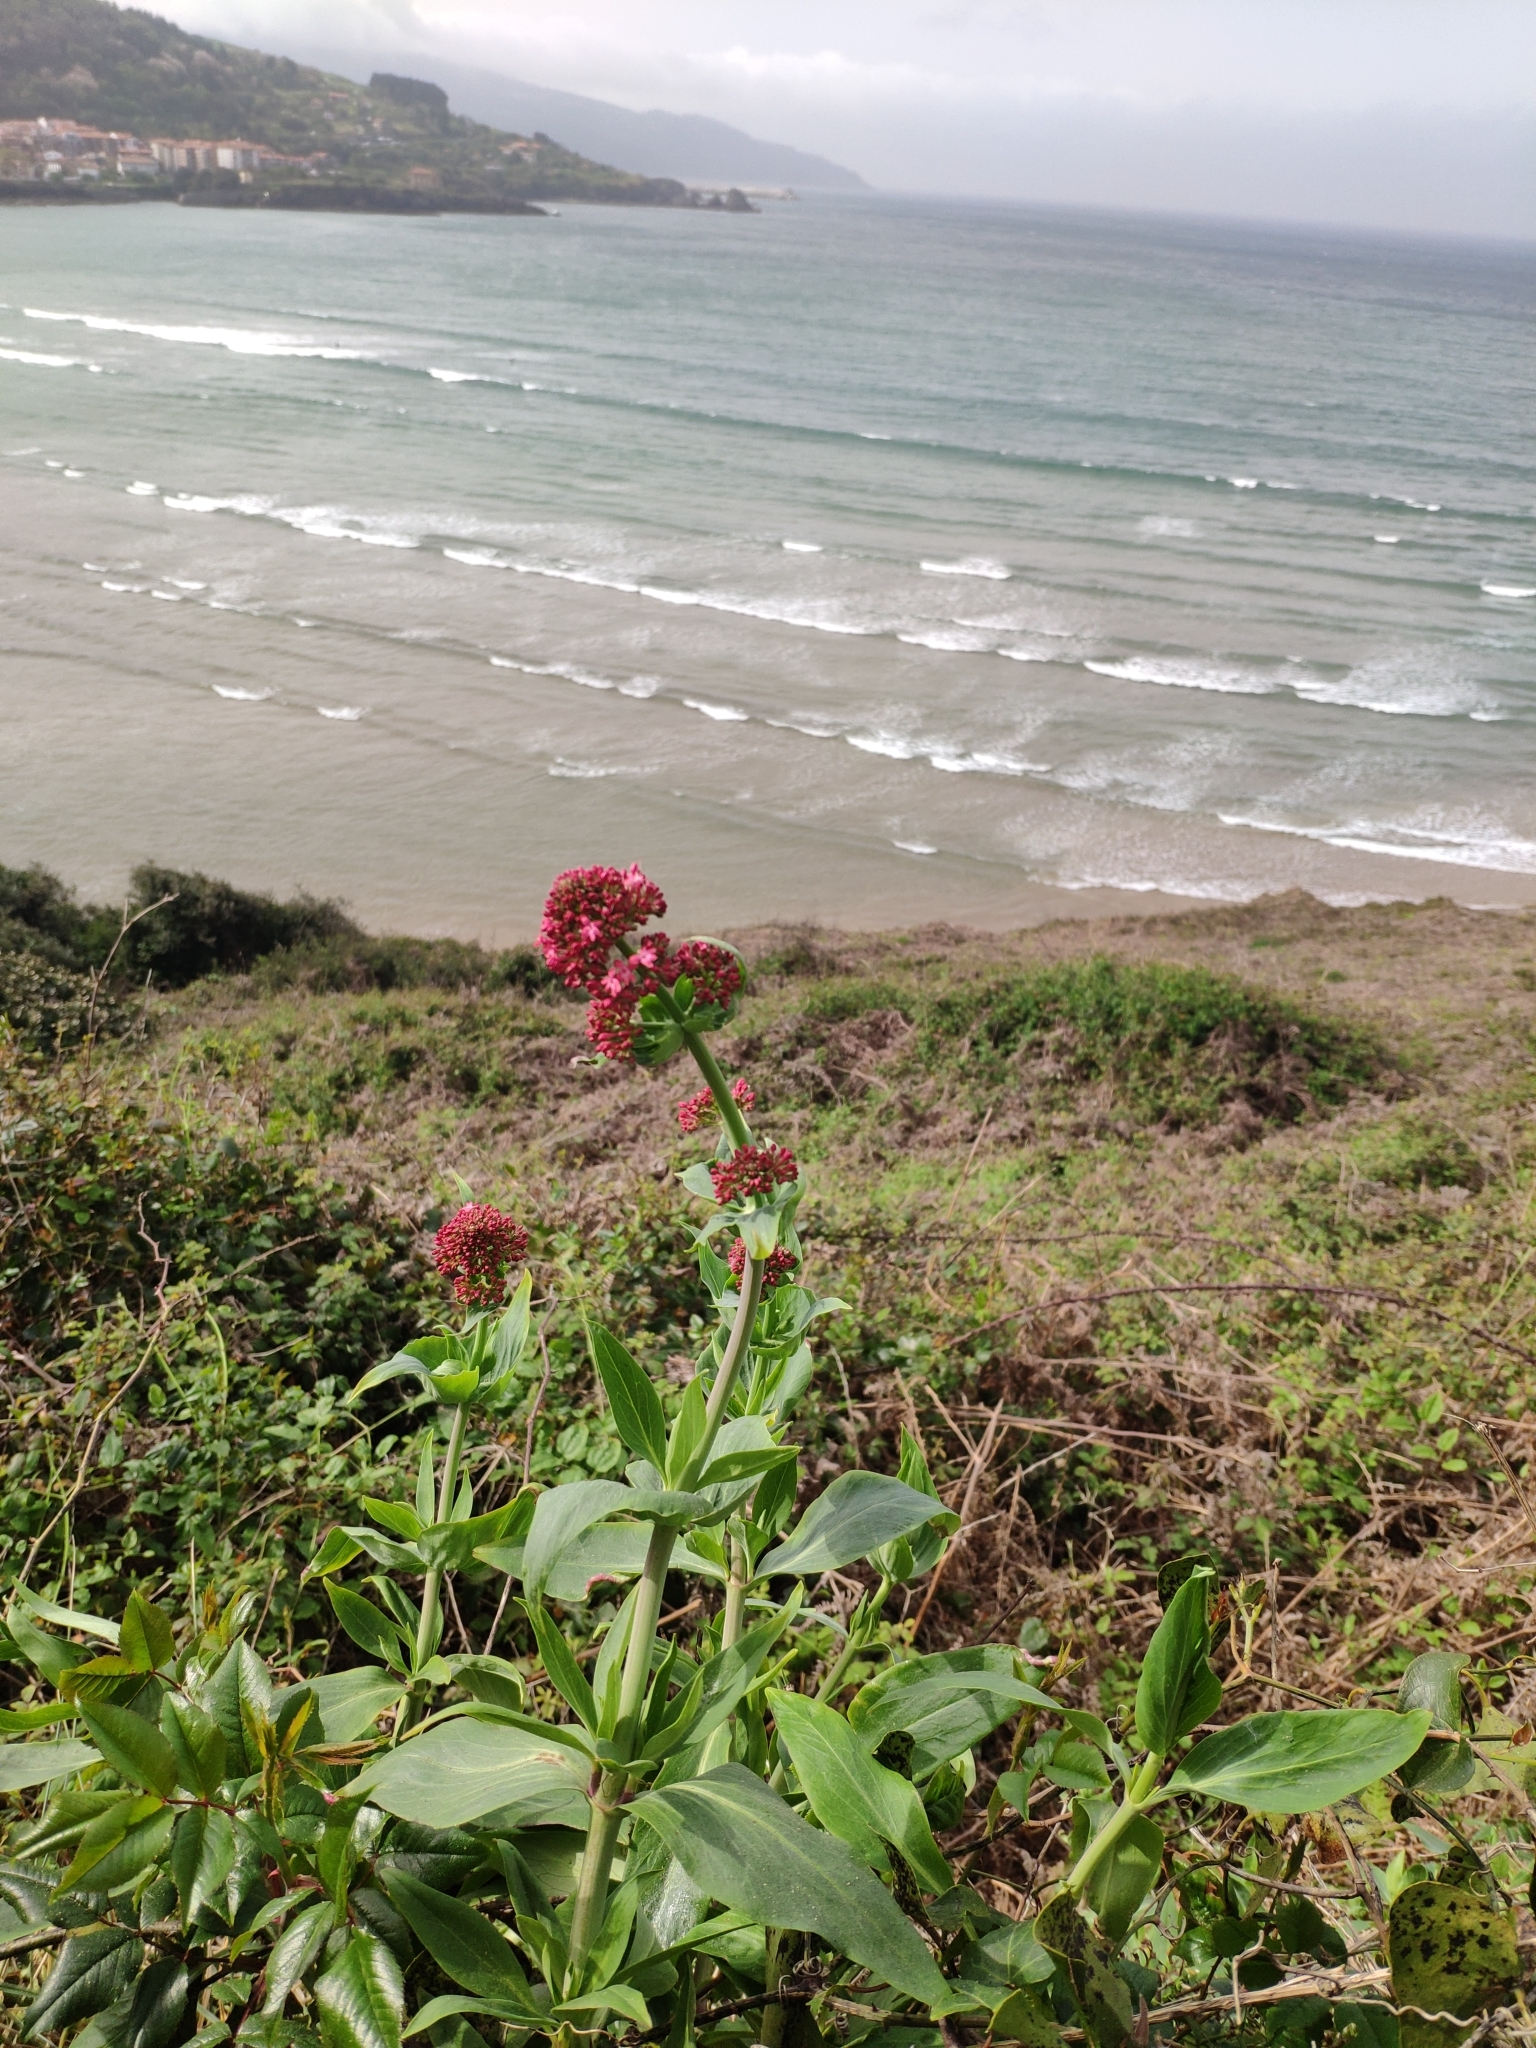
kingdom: Plantae
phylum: Tracheophyta
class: Magnoliopsida
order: Dipsacales
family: Caprifoliaceae
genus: Centranthus
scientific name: Centranthus ruber
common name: Red valerian
